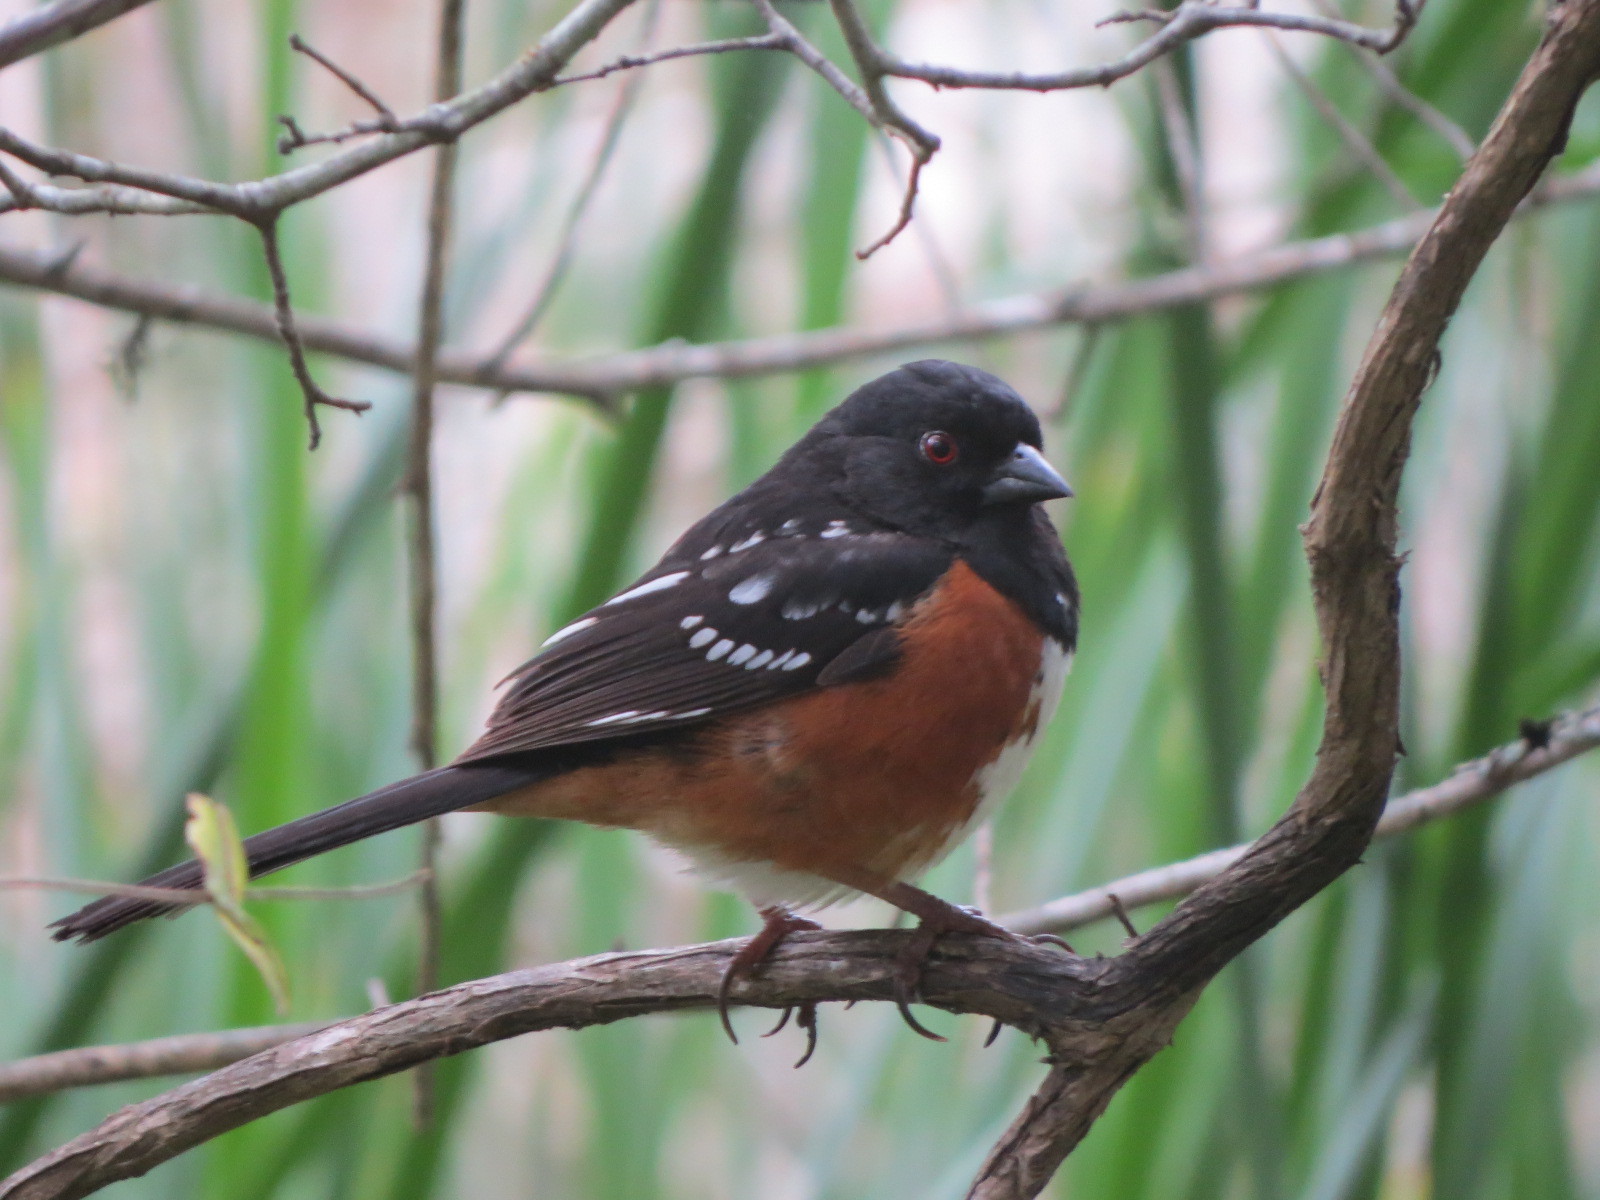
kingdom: Animalia
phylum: Chordata
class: Aves
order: Passeriformes
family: Passerellidae
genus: Pipilo
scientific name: Pipilo maculatus
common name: Spotted towhee
